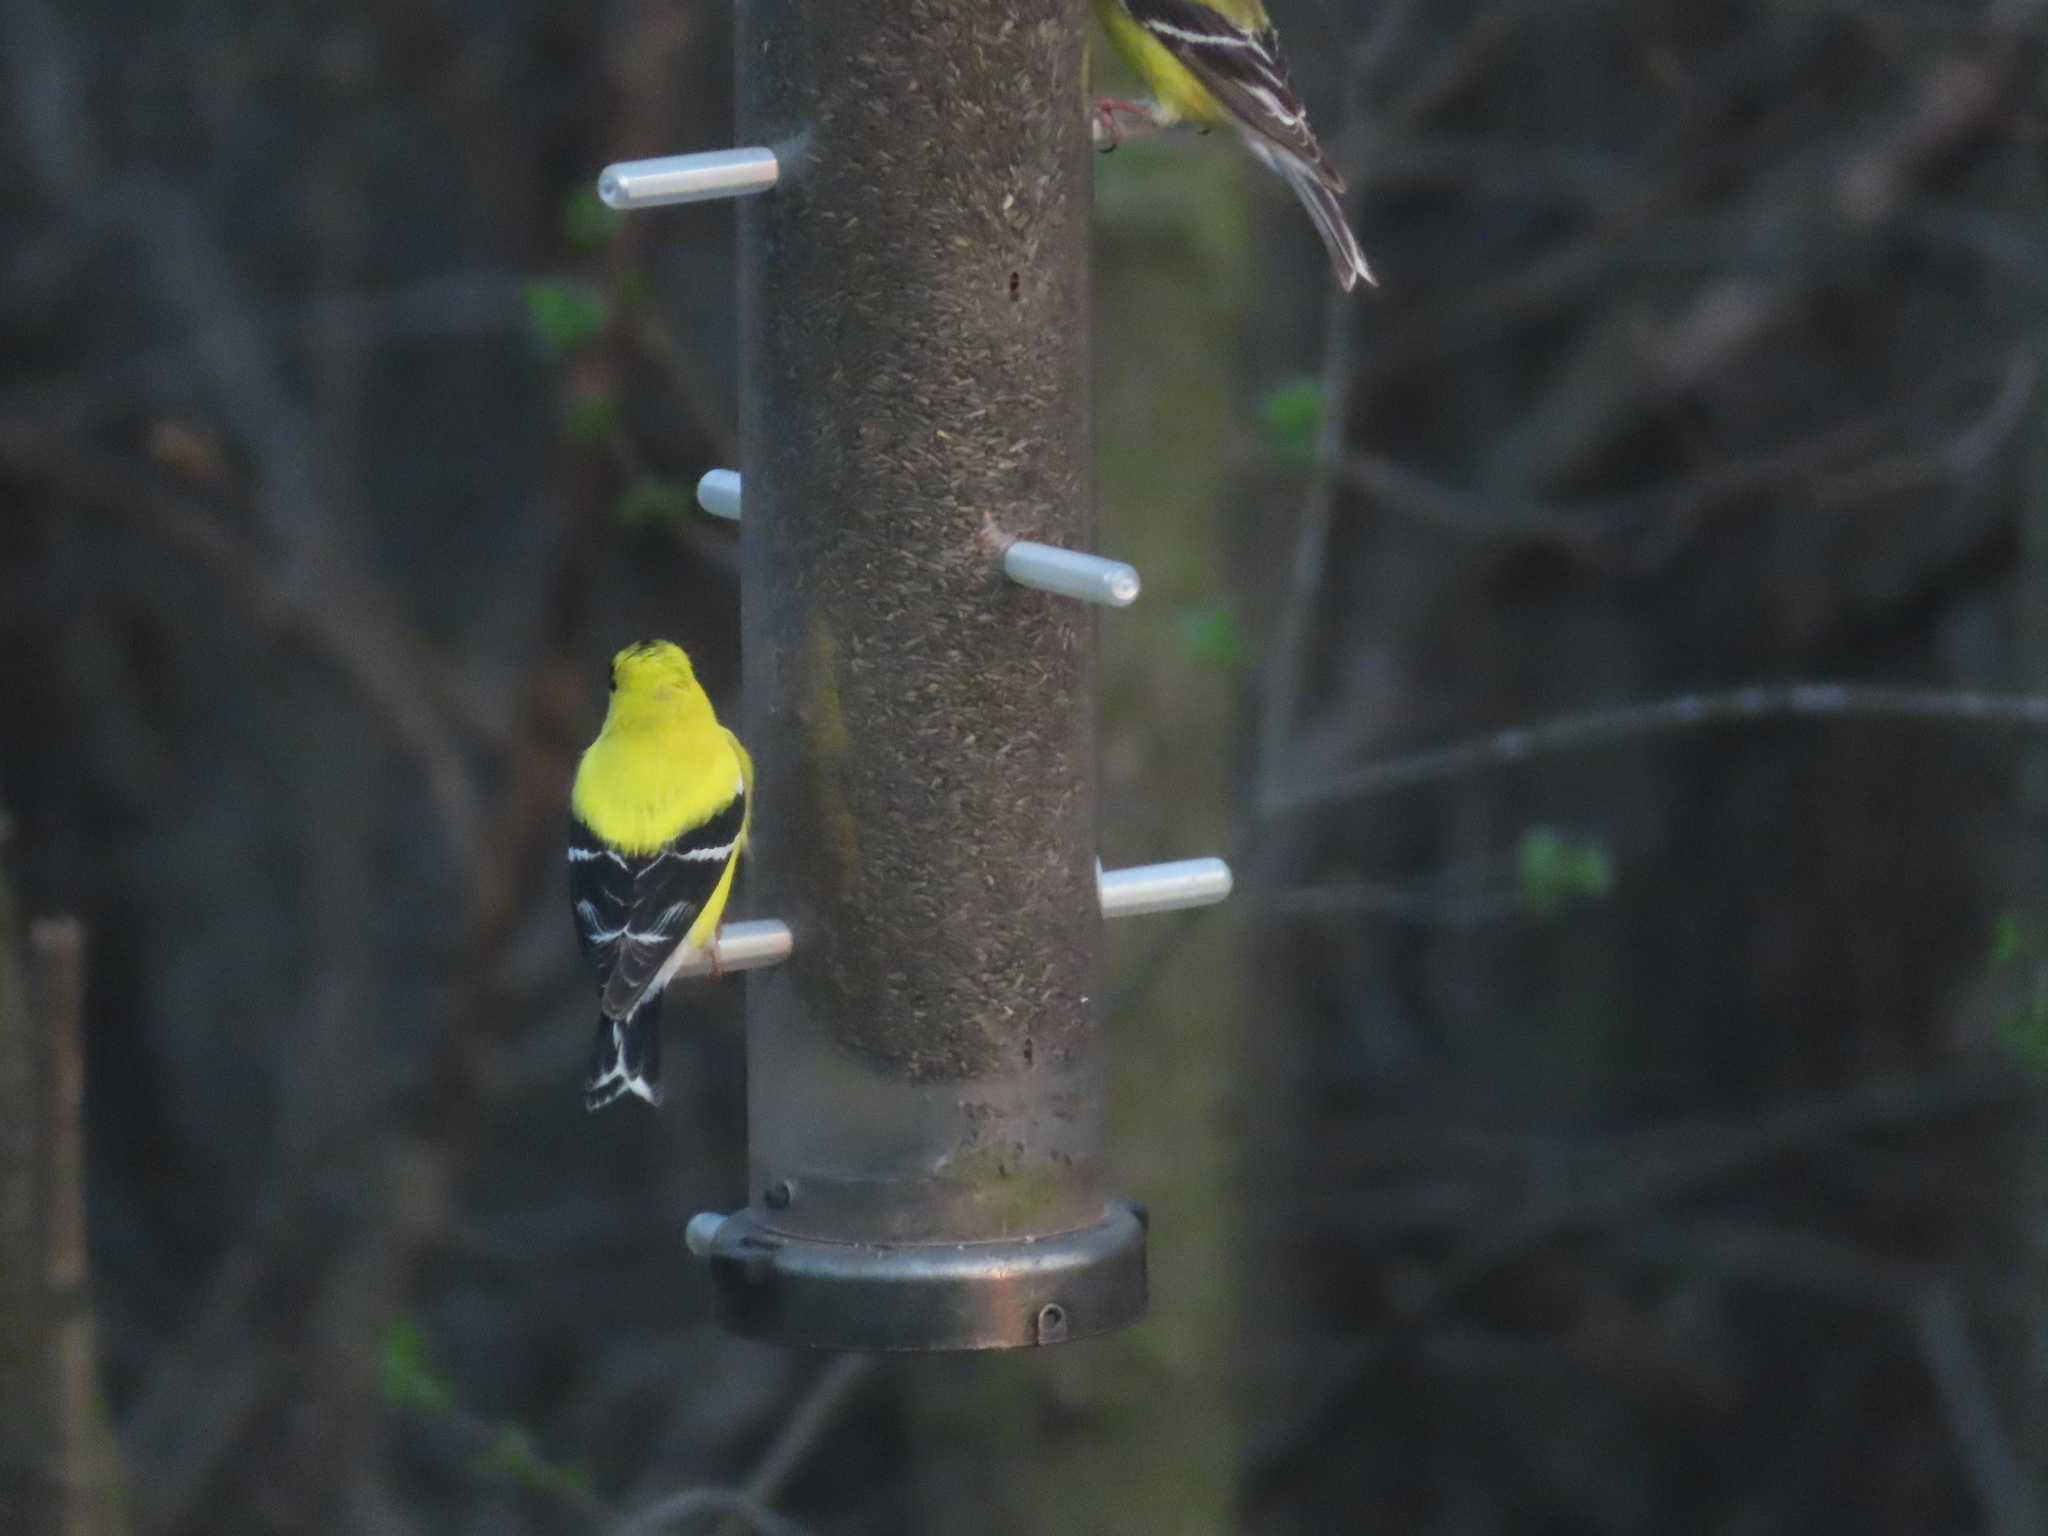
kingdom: Animalia
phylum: Chordata
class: Aves
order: Passeriformes
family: Fringillidae
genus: Spinus
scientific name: Spinus tristis
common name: American goldfinch
